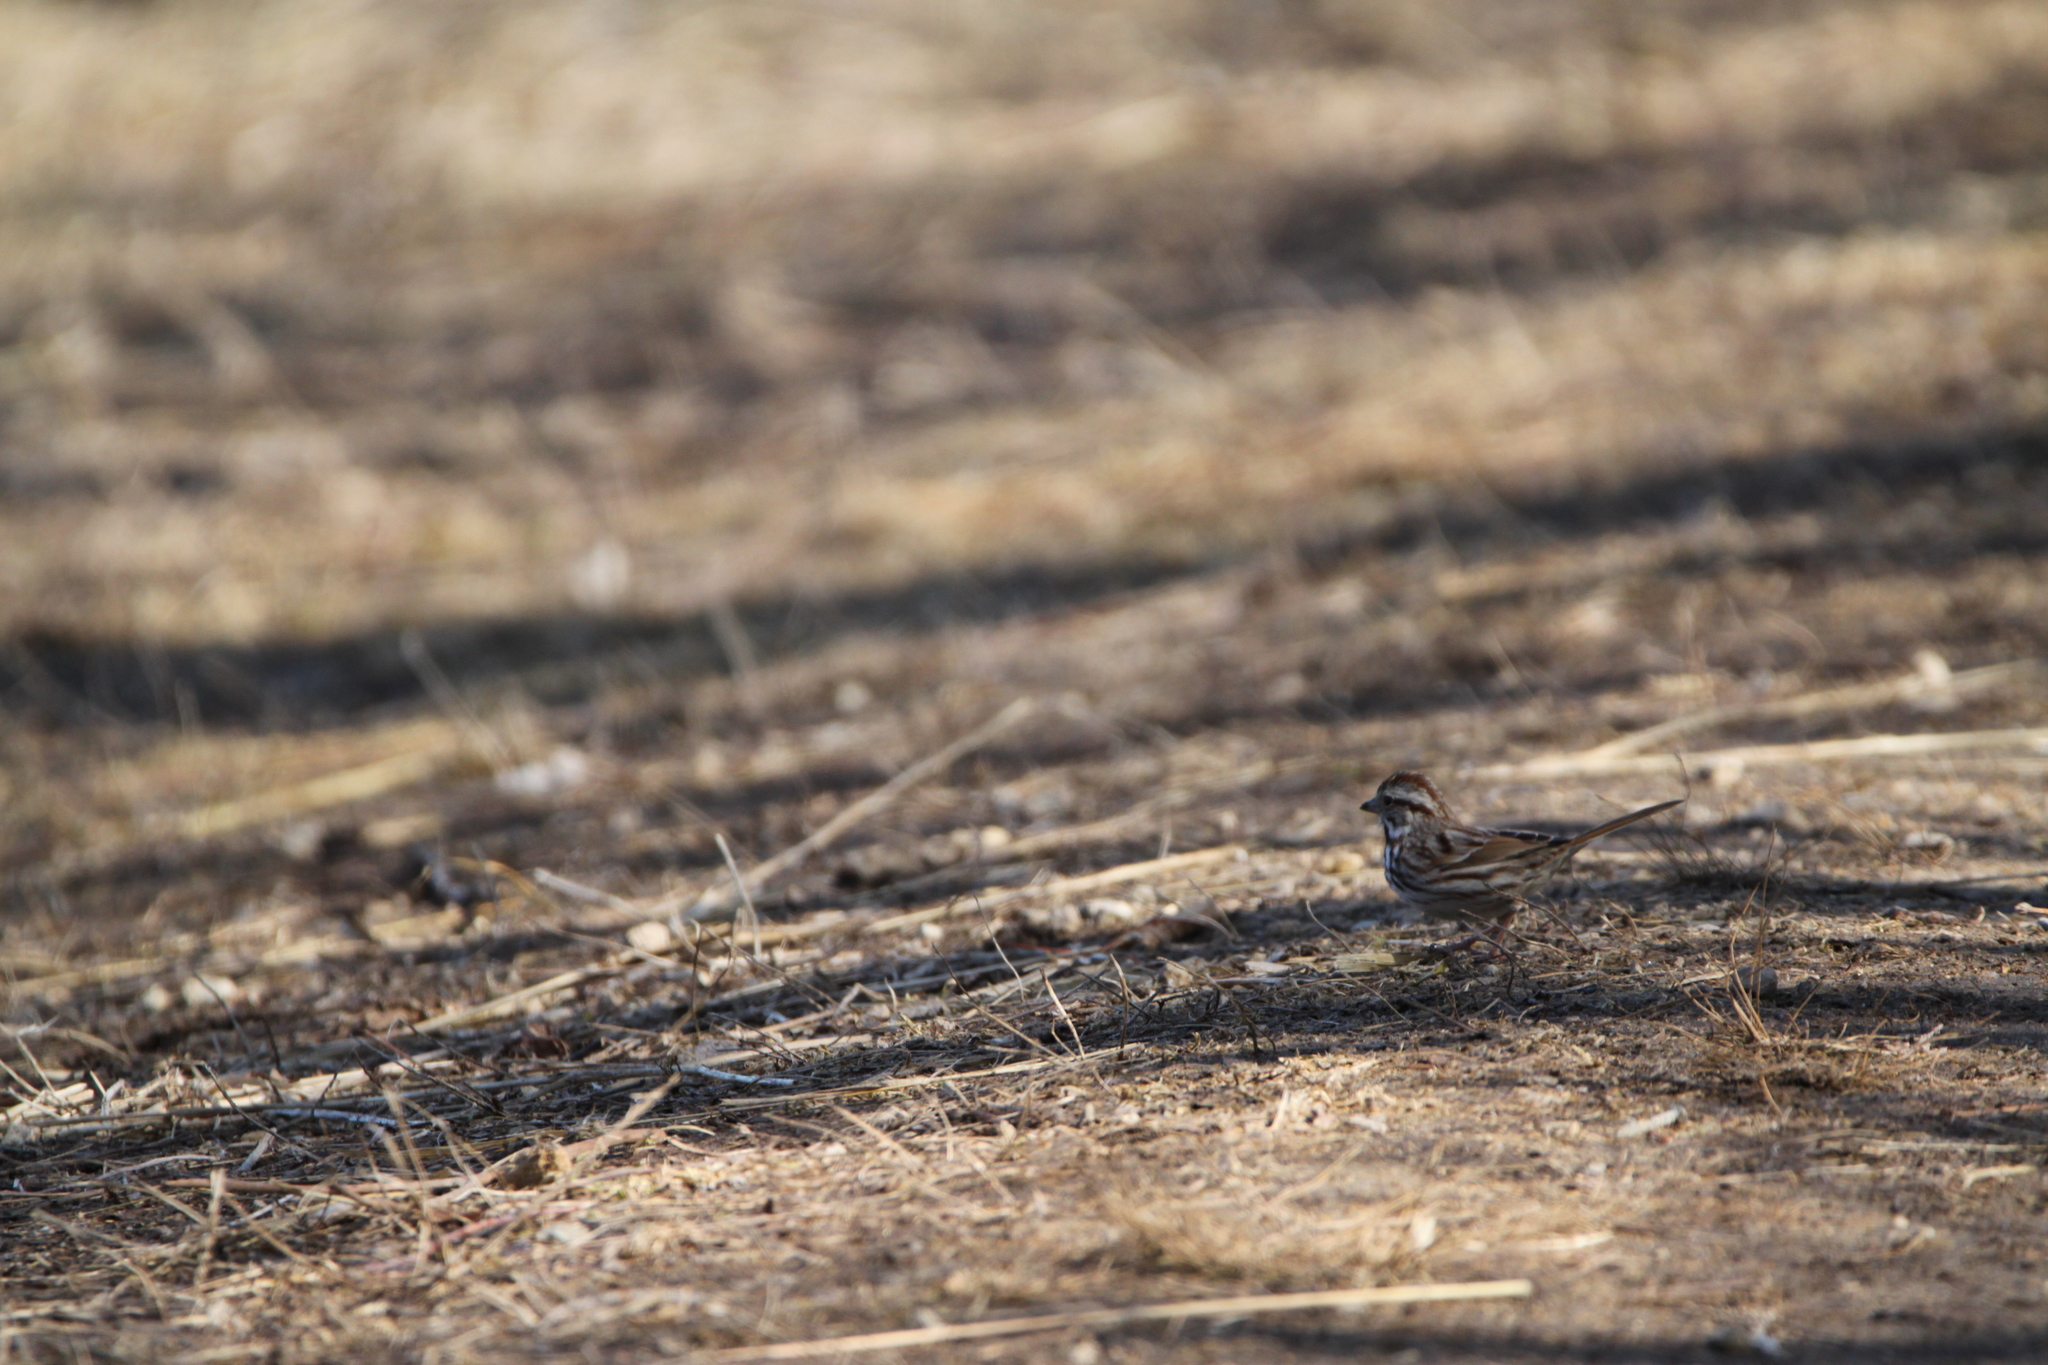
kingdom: Animalia
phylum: Chordata
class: Aves
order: Passeriformes
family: Passerellidae
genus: Melospiza
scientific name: Melospiza melodia
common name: Song sparrow
